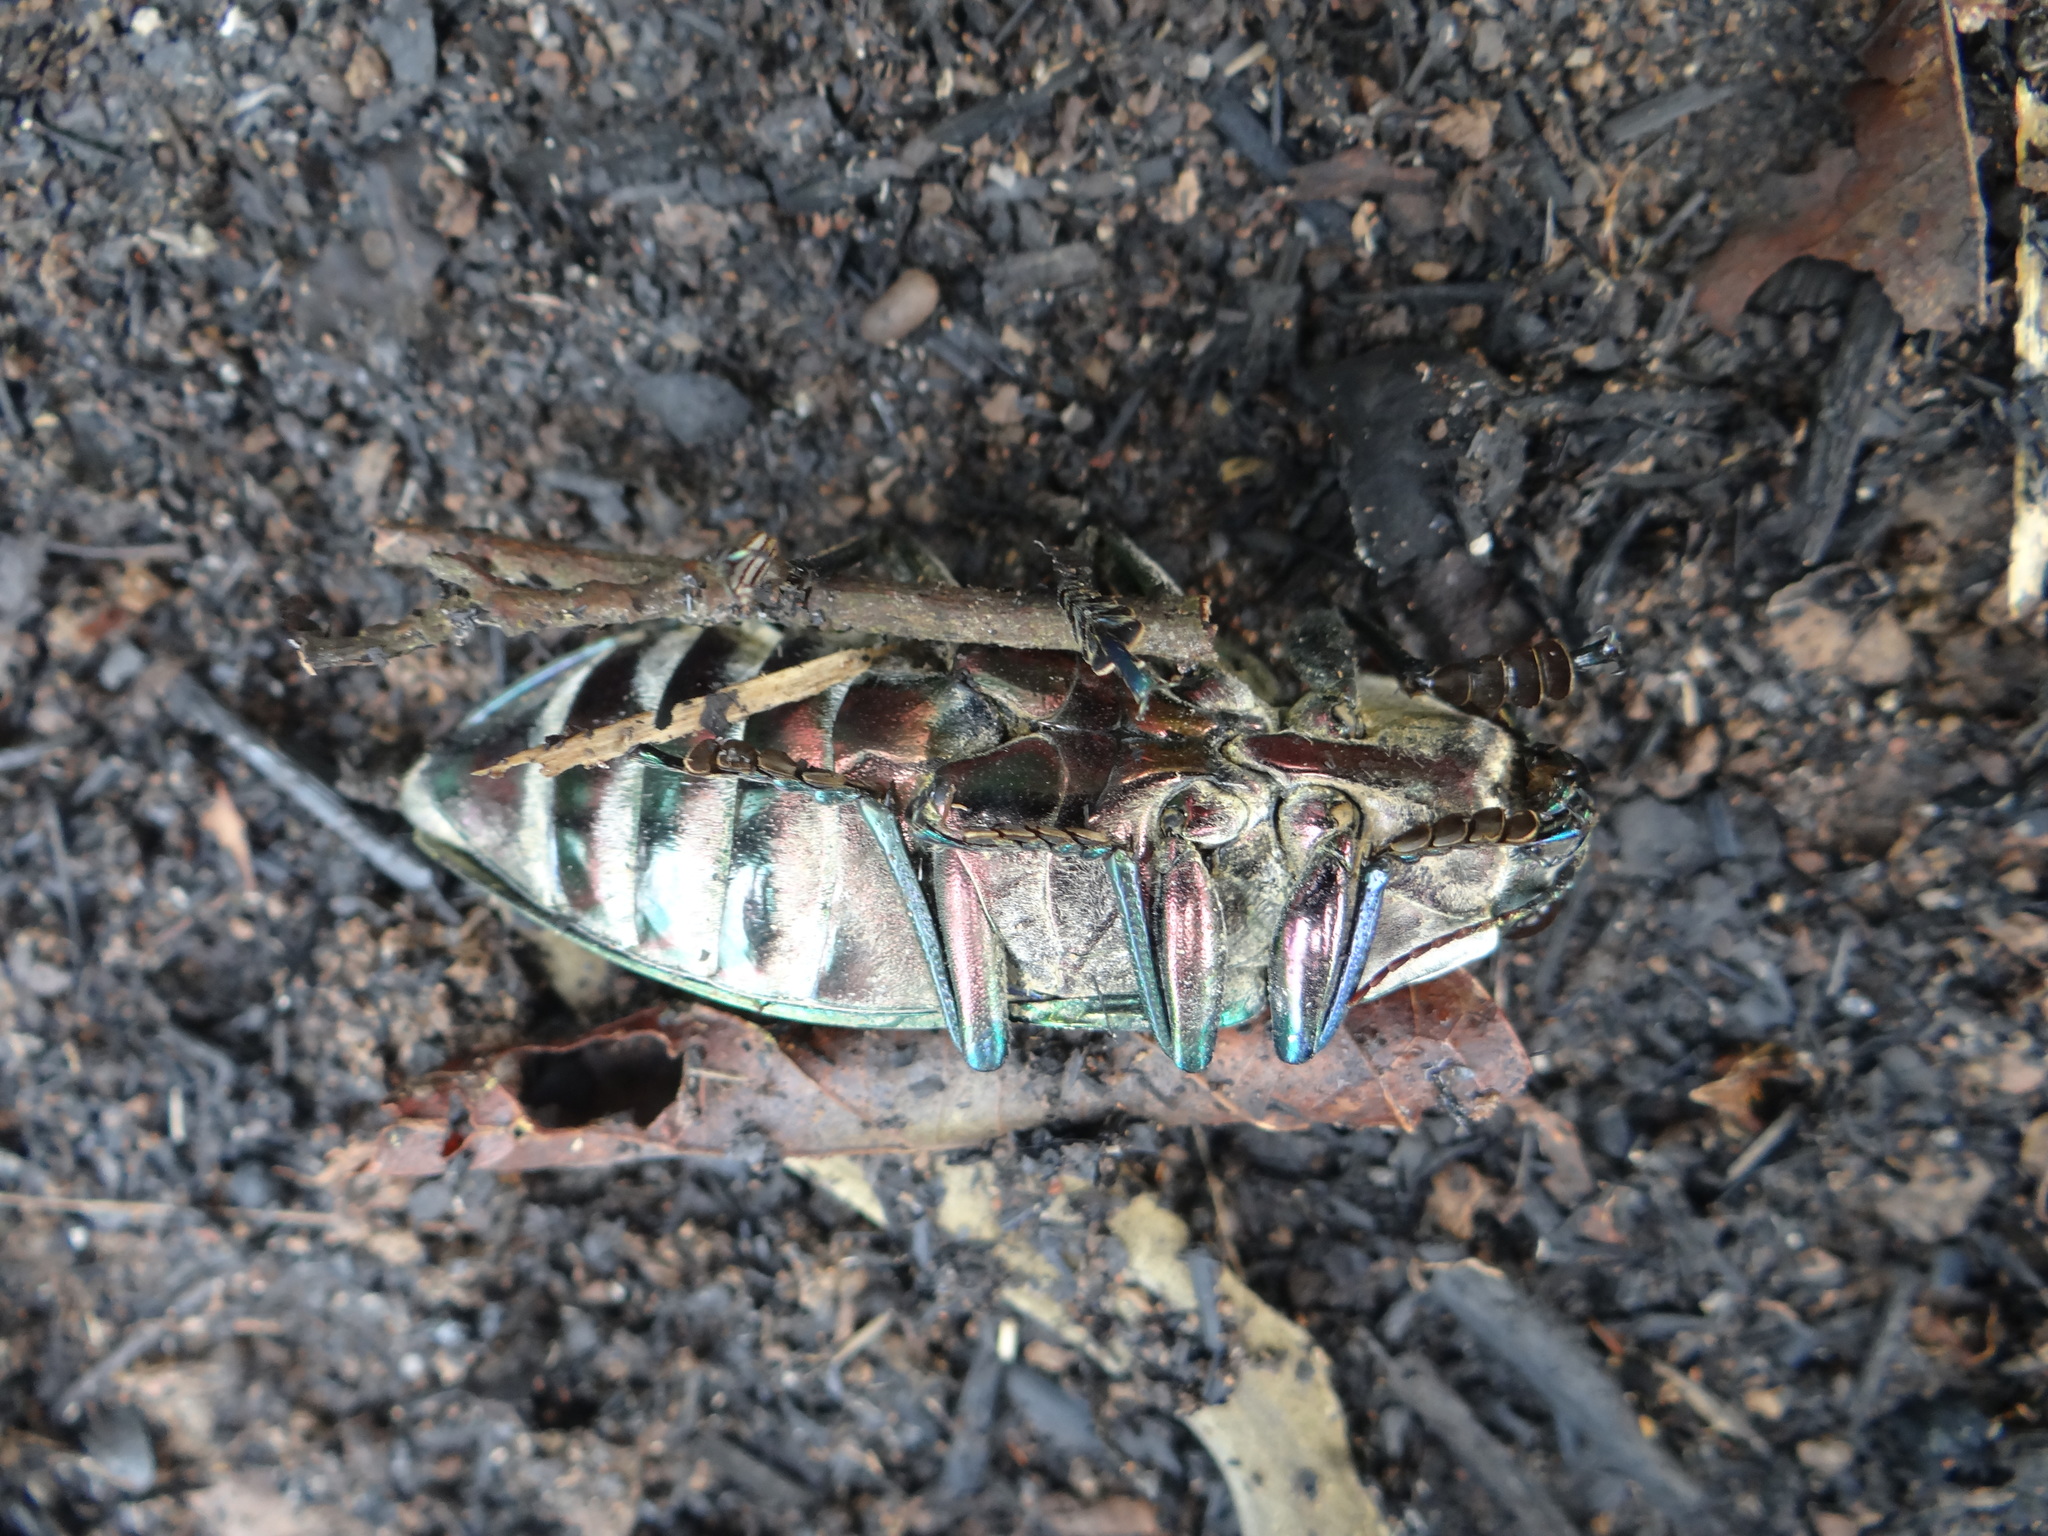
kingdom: Animalia
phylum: Arthropoda
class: Insecta
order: Coleoptera
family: Buprestidae
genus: Euchroma
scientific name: Euchroma giganteum
